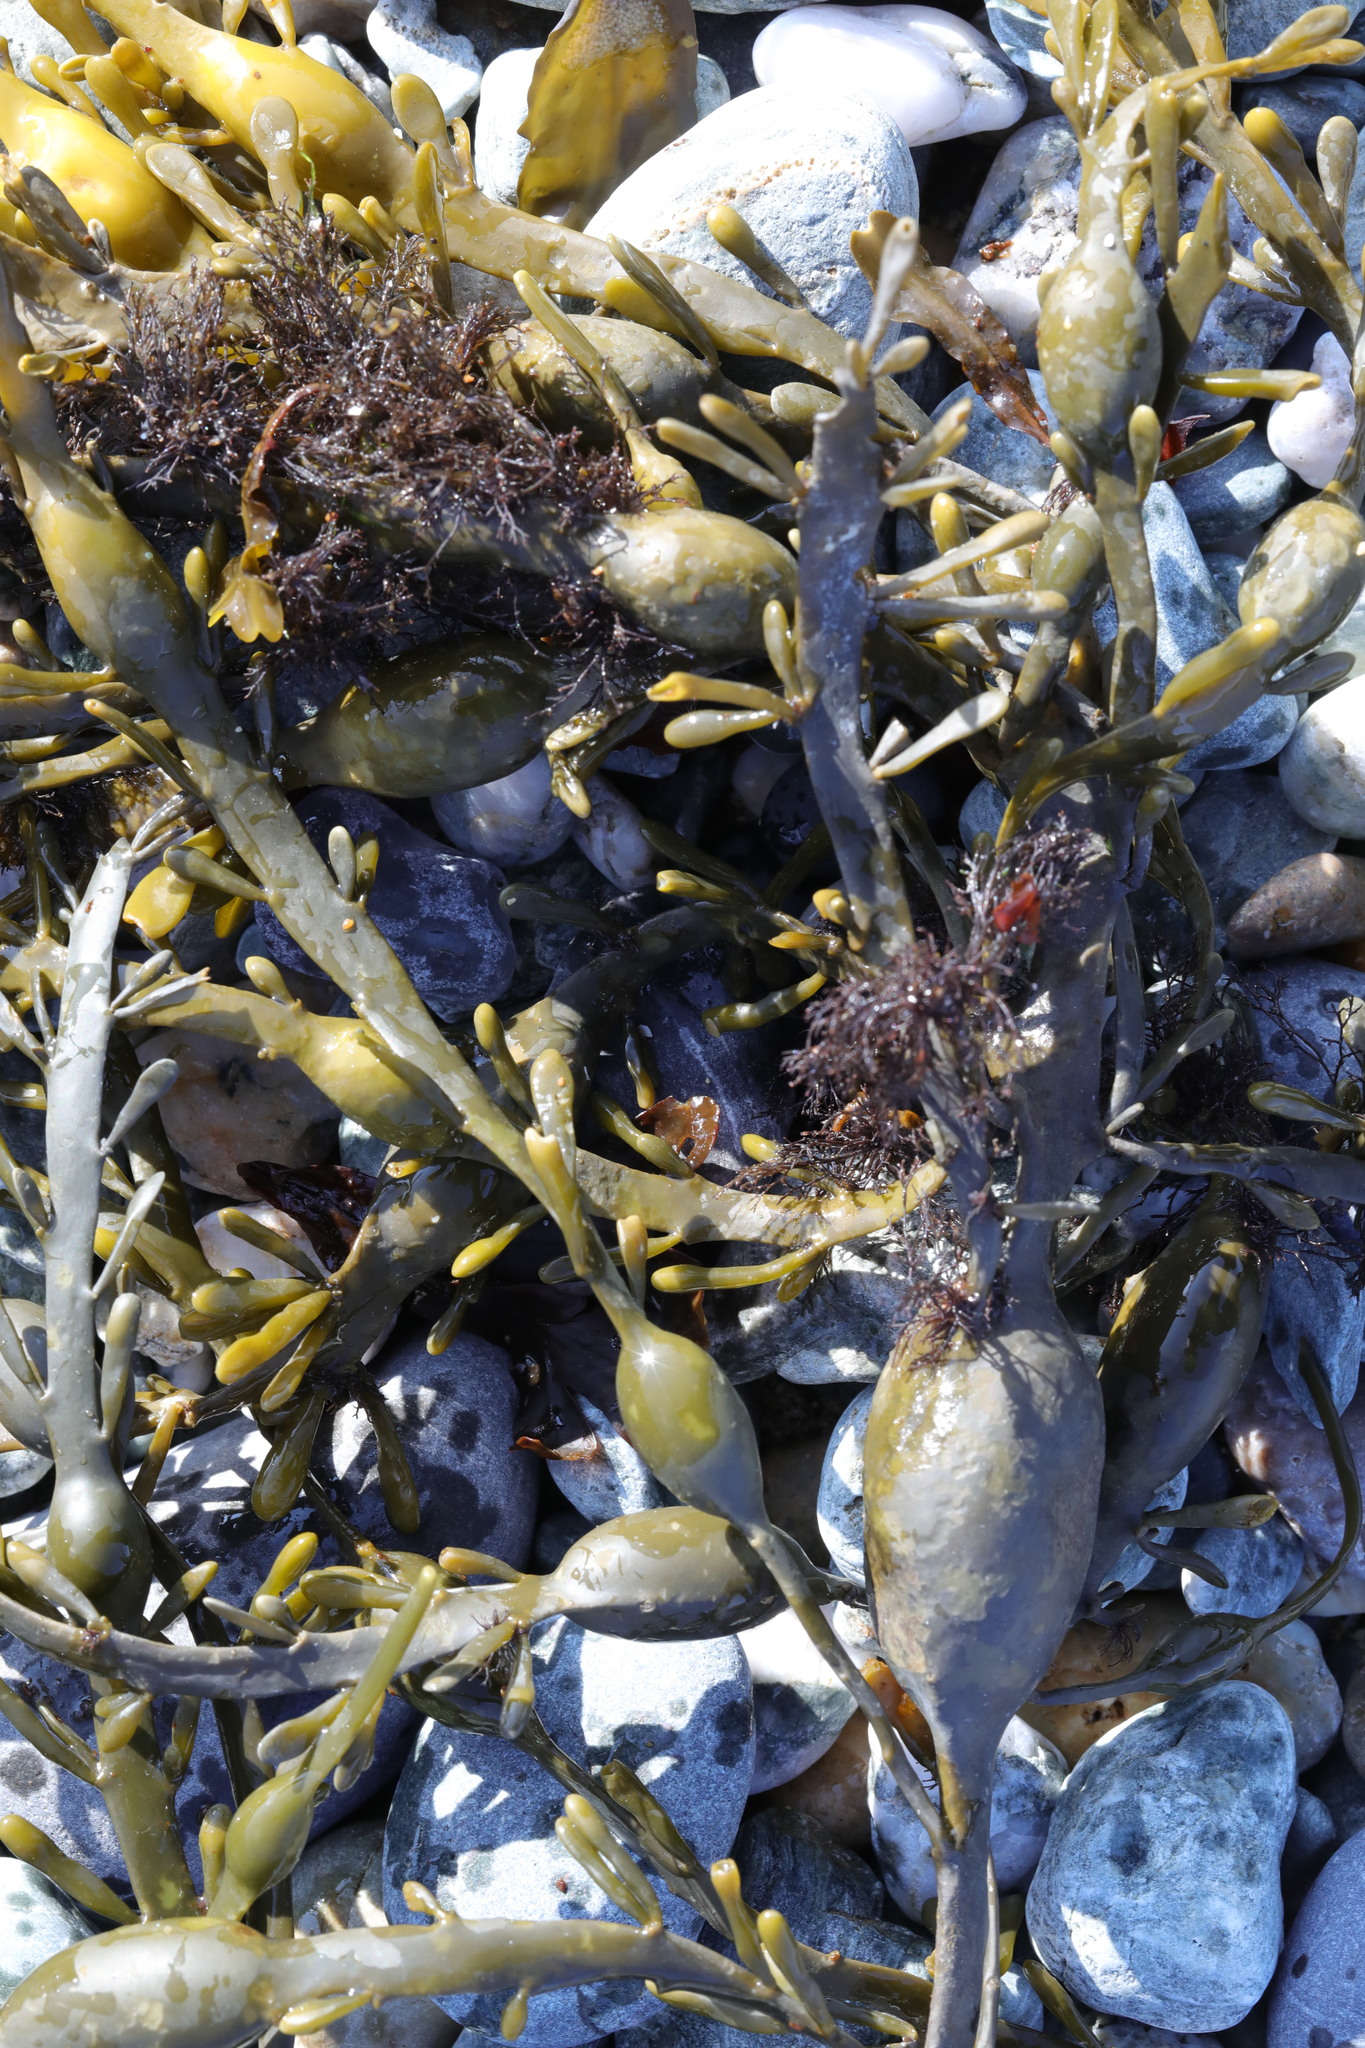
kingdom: Chromista
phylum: Ochrophyta
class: Phaeophyceae
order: Fucales
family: Fucaceae
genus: Ascophyllum
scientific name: Ascophyllum nodosum
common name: Knotted wrack
